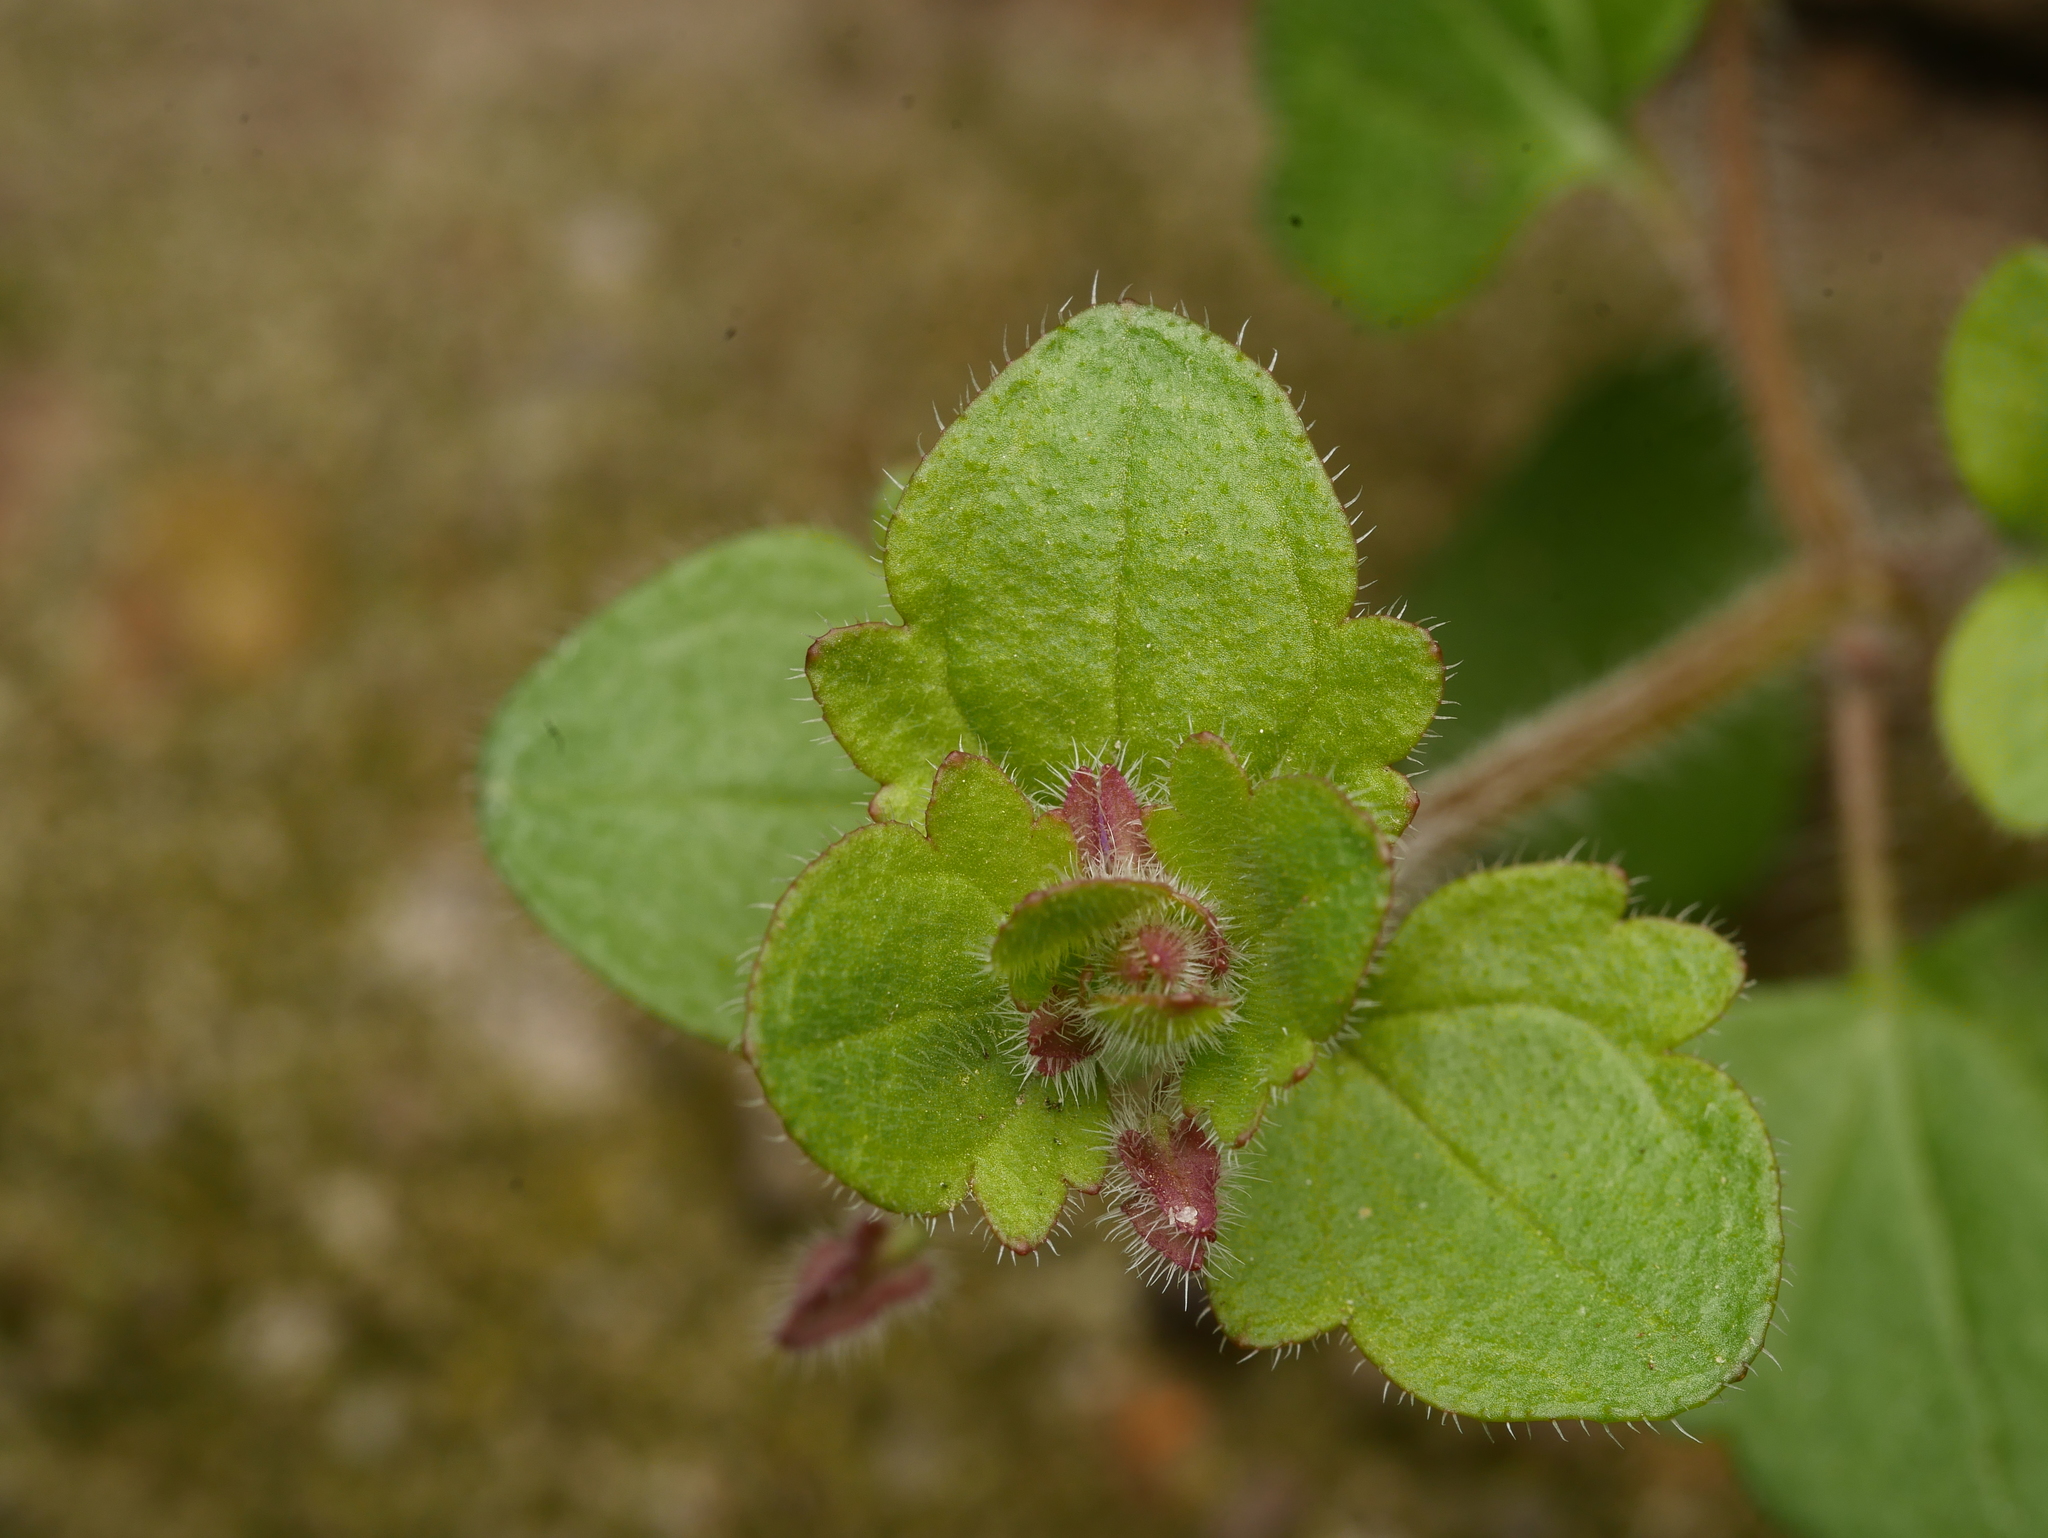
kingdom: Plantae
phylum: Tracheophyta
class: Magnoliopsida
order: Lamiales
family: Plantaginaceae
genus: Veronica
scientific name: Veronica sublobata
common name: False ivy-leaved speedwell
